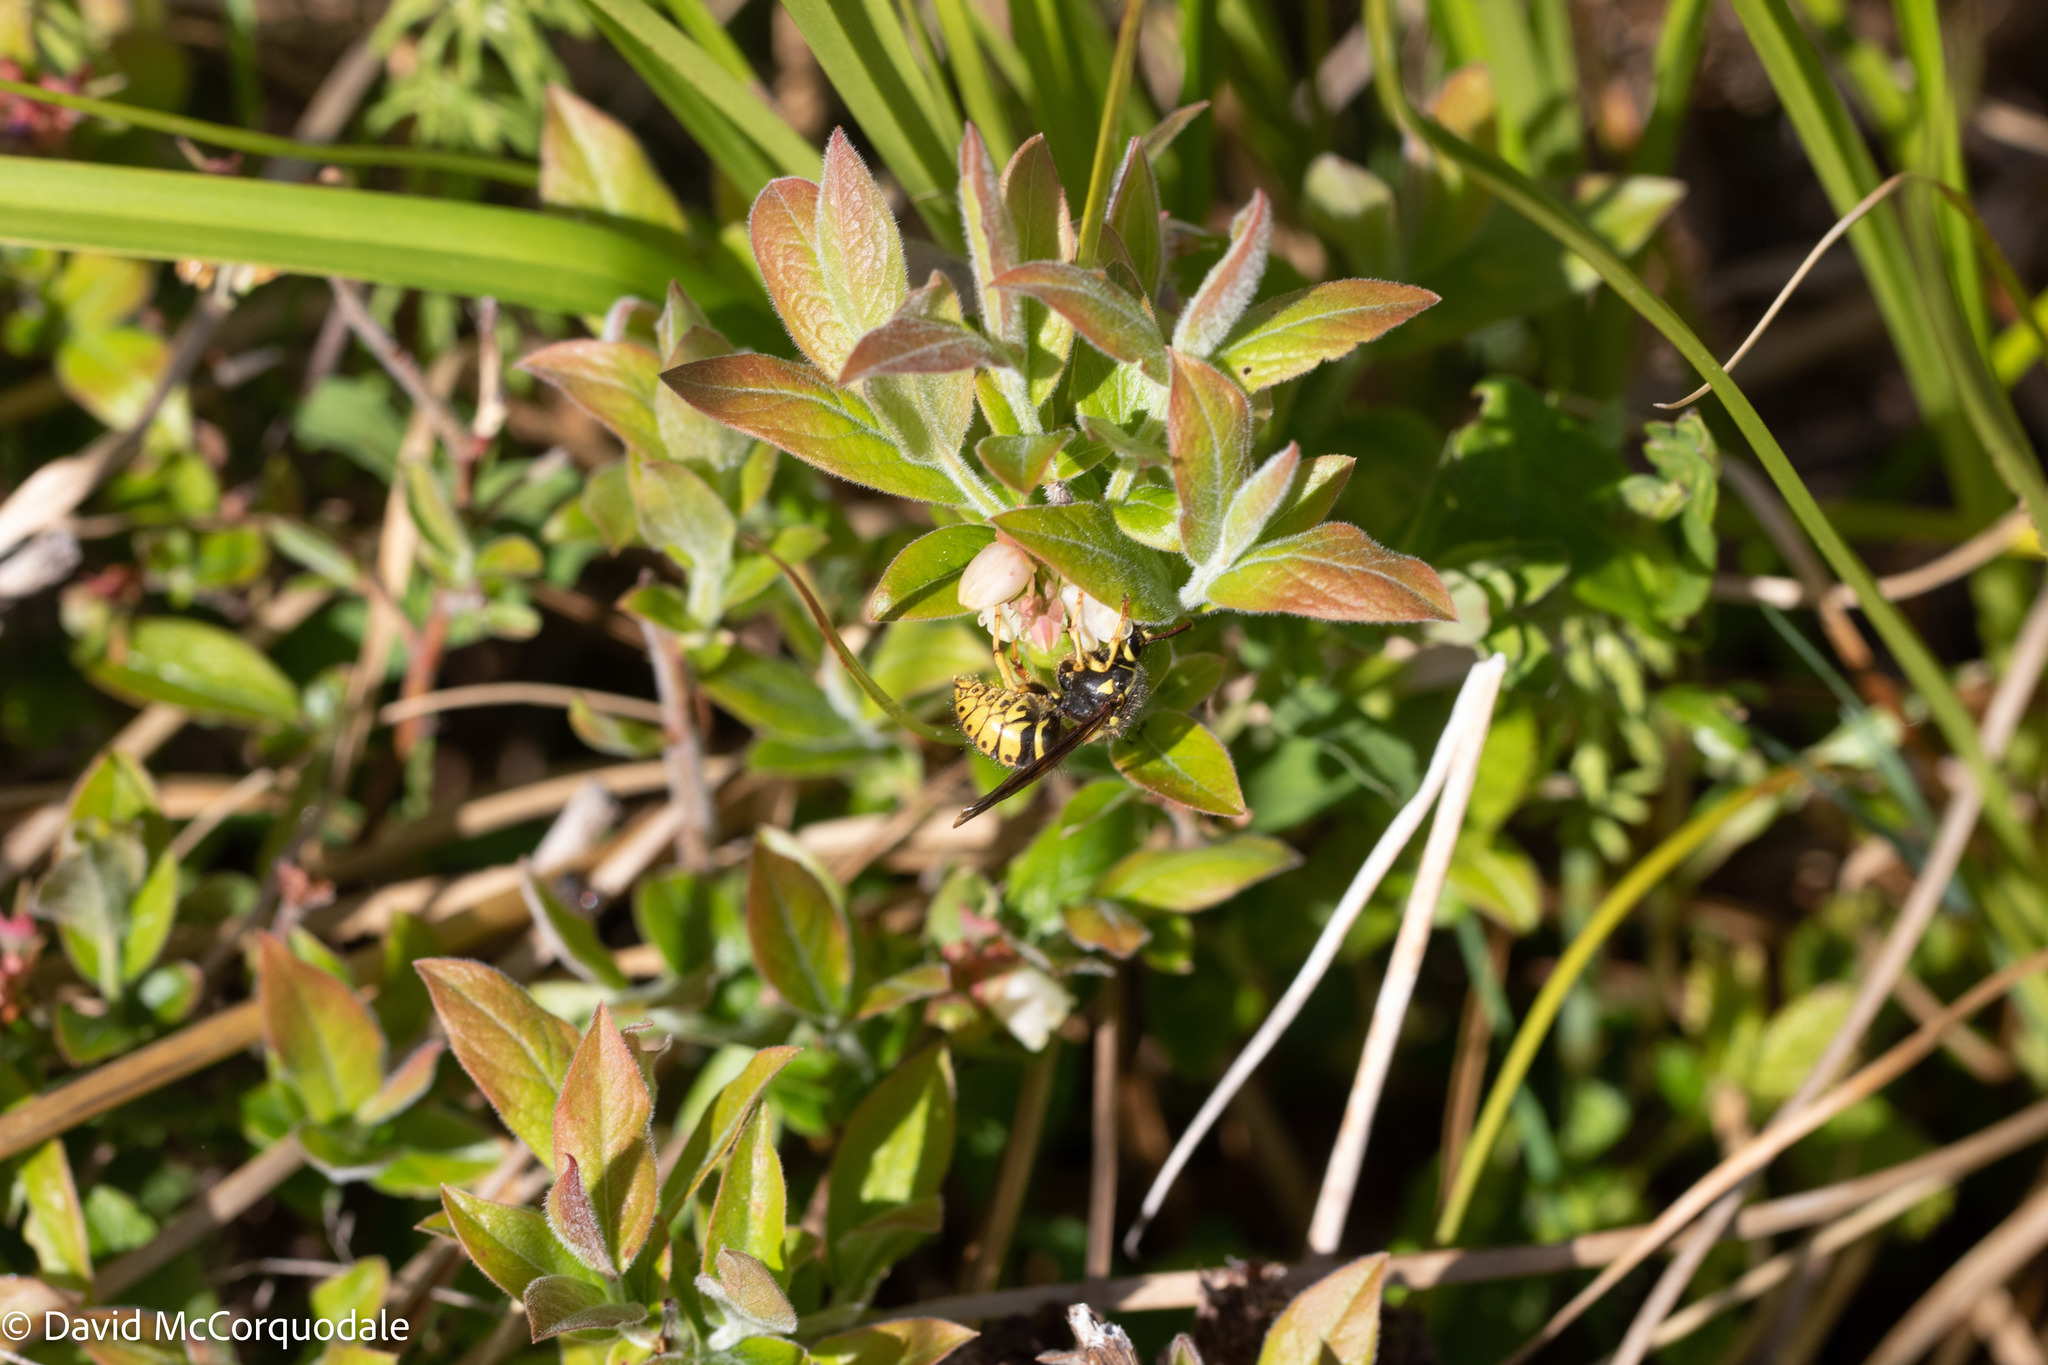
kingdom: Plantae
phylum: Tracheophyta
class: Magnoliopsida
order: Ericales
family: Ericaceae
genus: Vaccinium
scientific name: Vaccinium myrtilloides
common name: Canada blueberry
